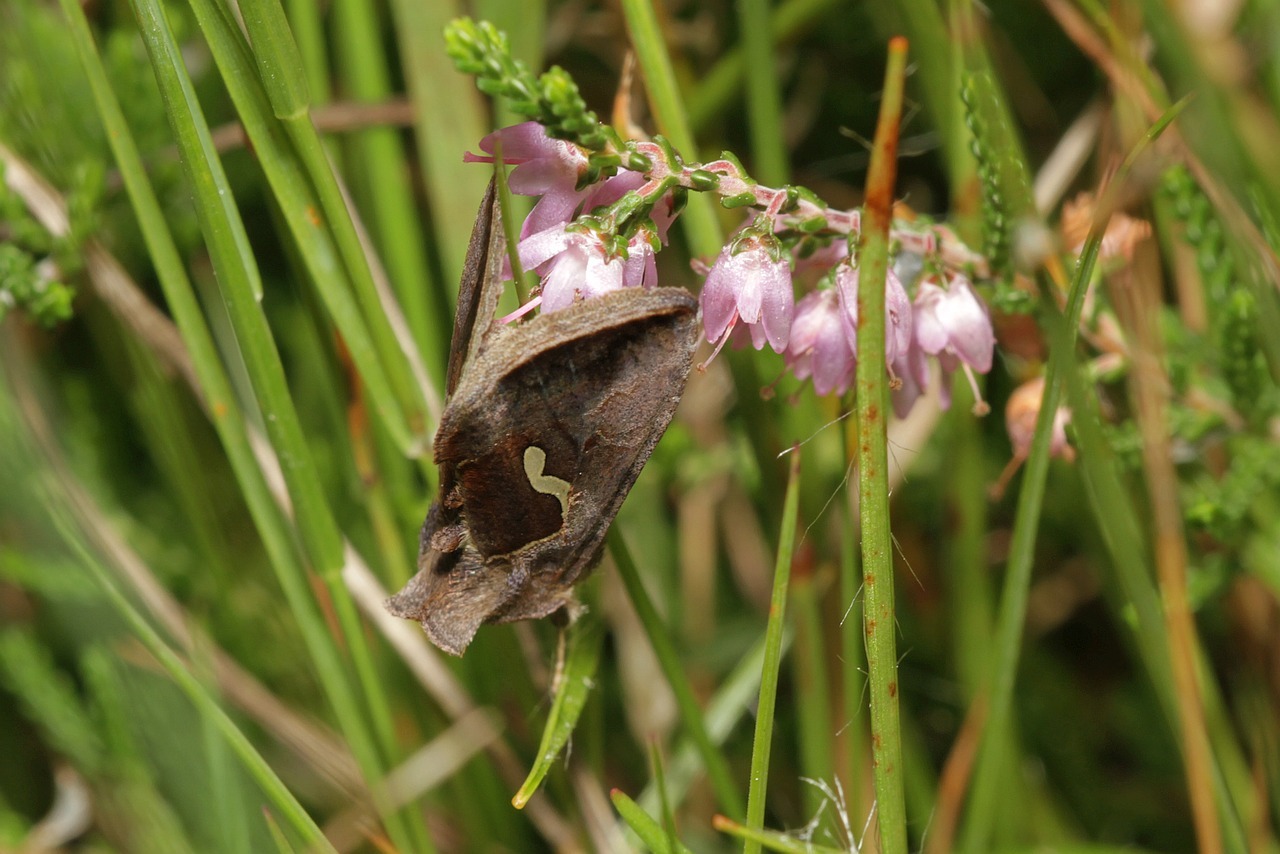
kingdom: Animalia
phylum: Arthropoda
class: Insecta
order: Lepidoptera
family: Noctuidae
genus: Macdunnoughia
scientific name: Macdunnoughia confusa
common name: Dewick's plusia
